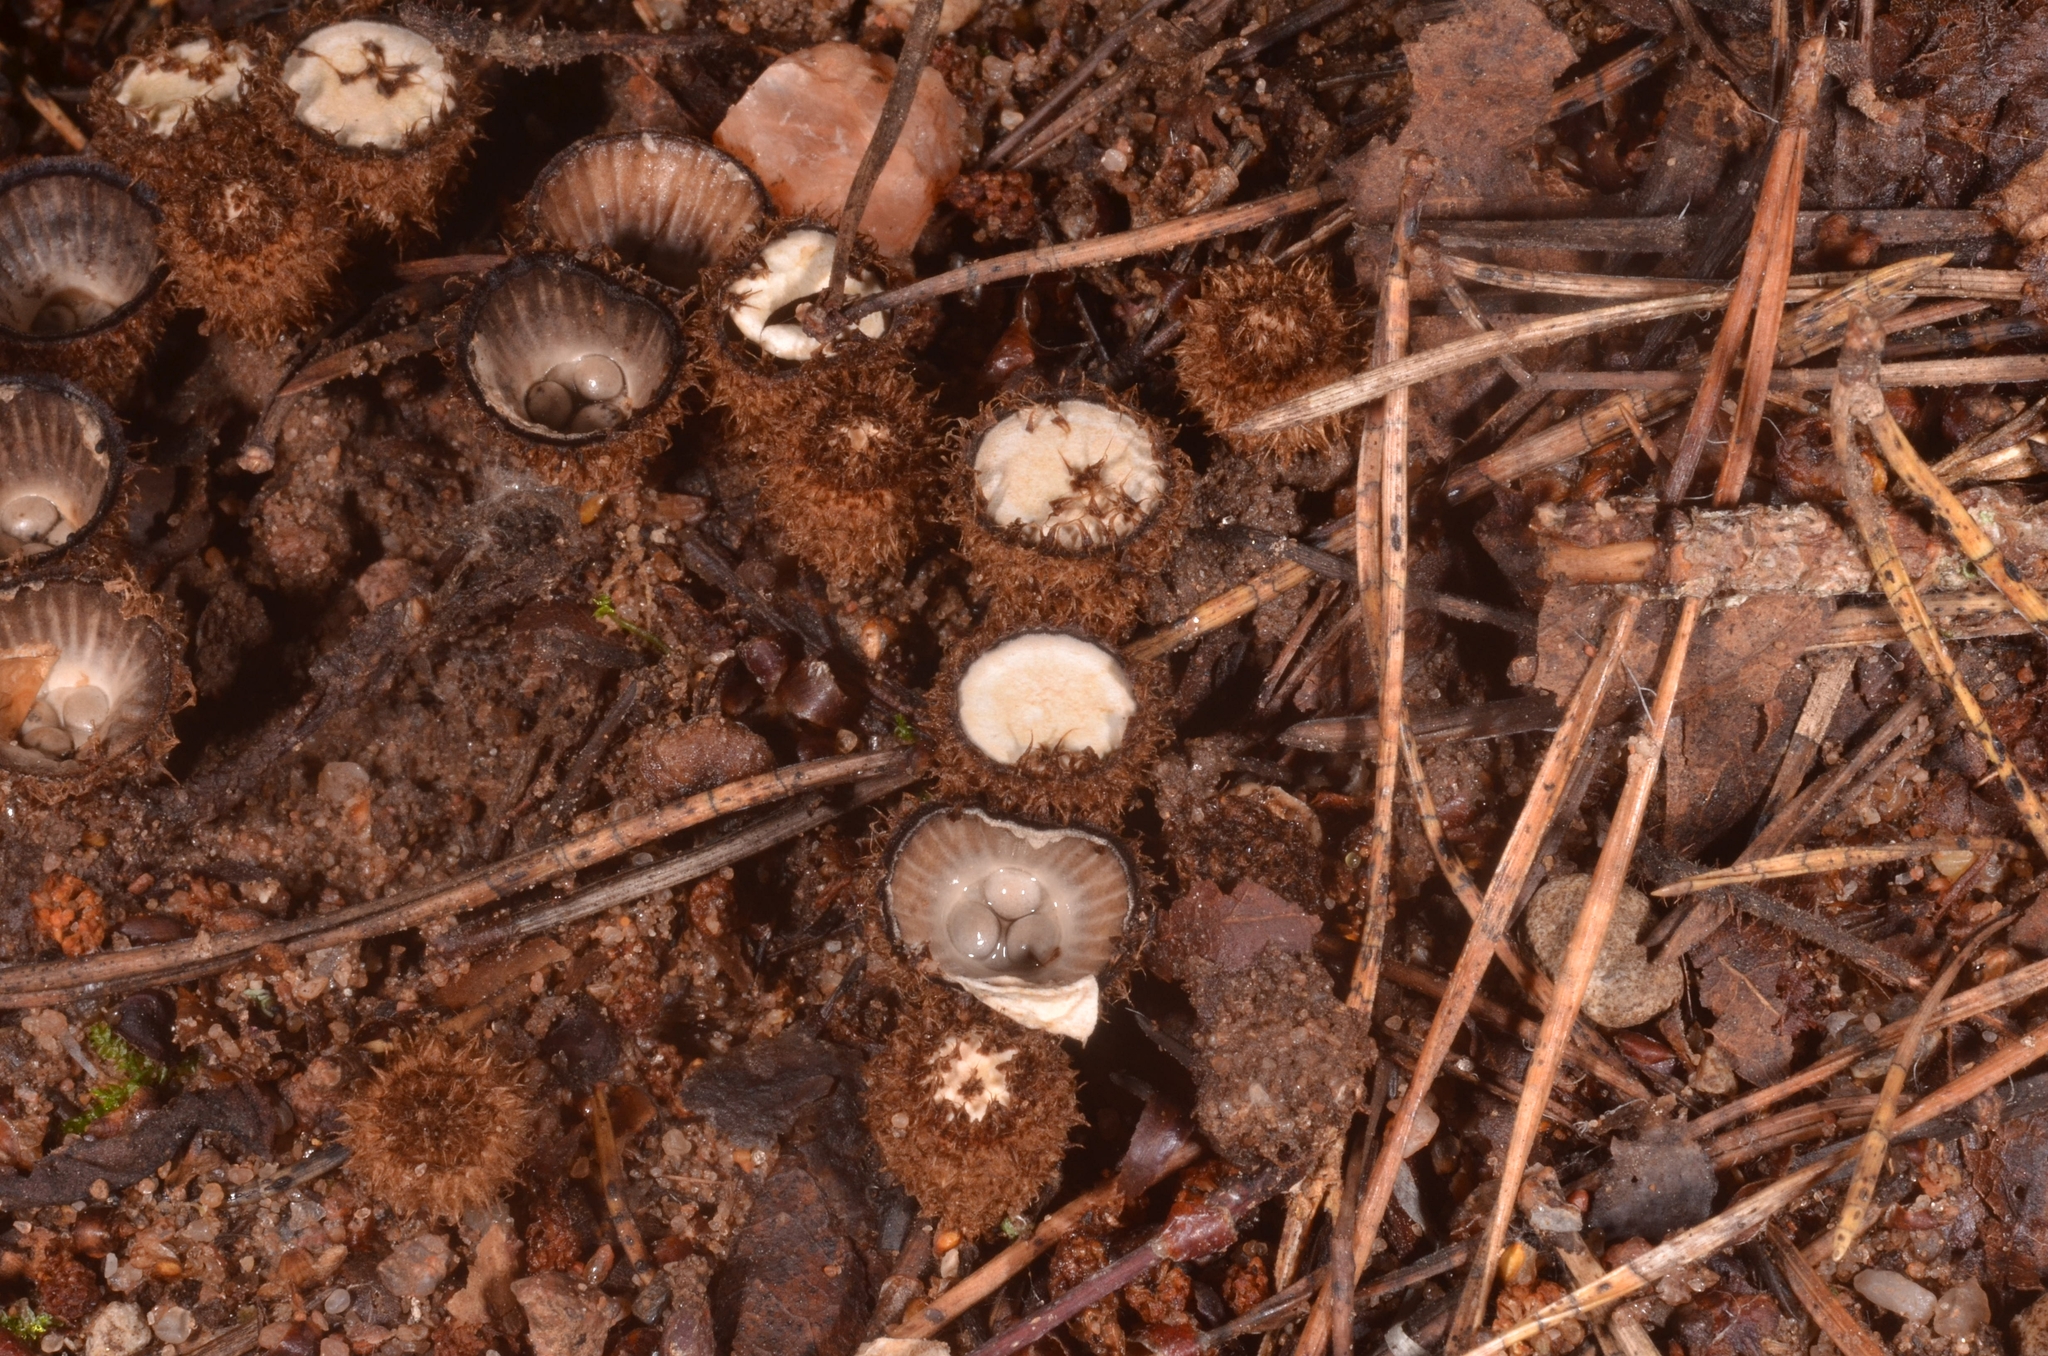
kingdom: Fungi
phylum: Basidiomycota
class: Agaricomycetes
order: Agaricales
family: Agaricaceae
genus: Cyathus
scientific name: Cyathus striatus
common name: Fluted bird's nest
